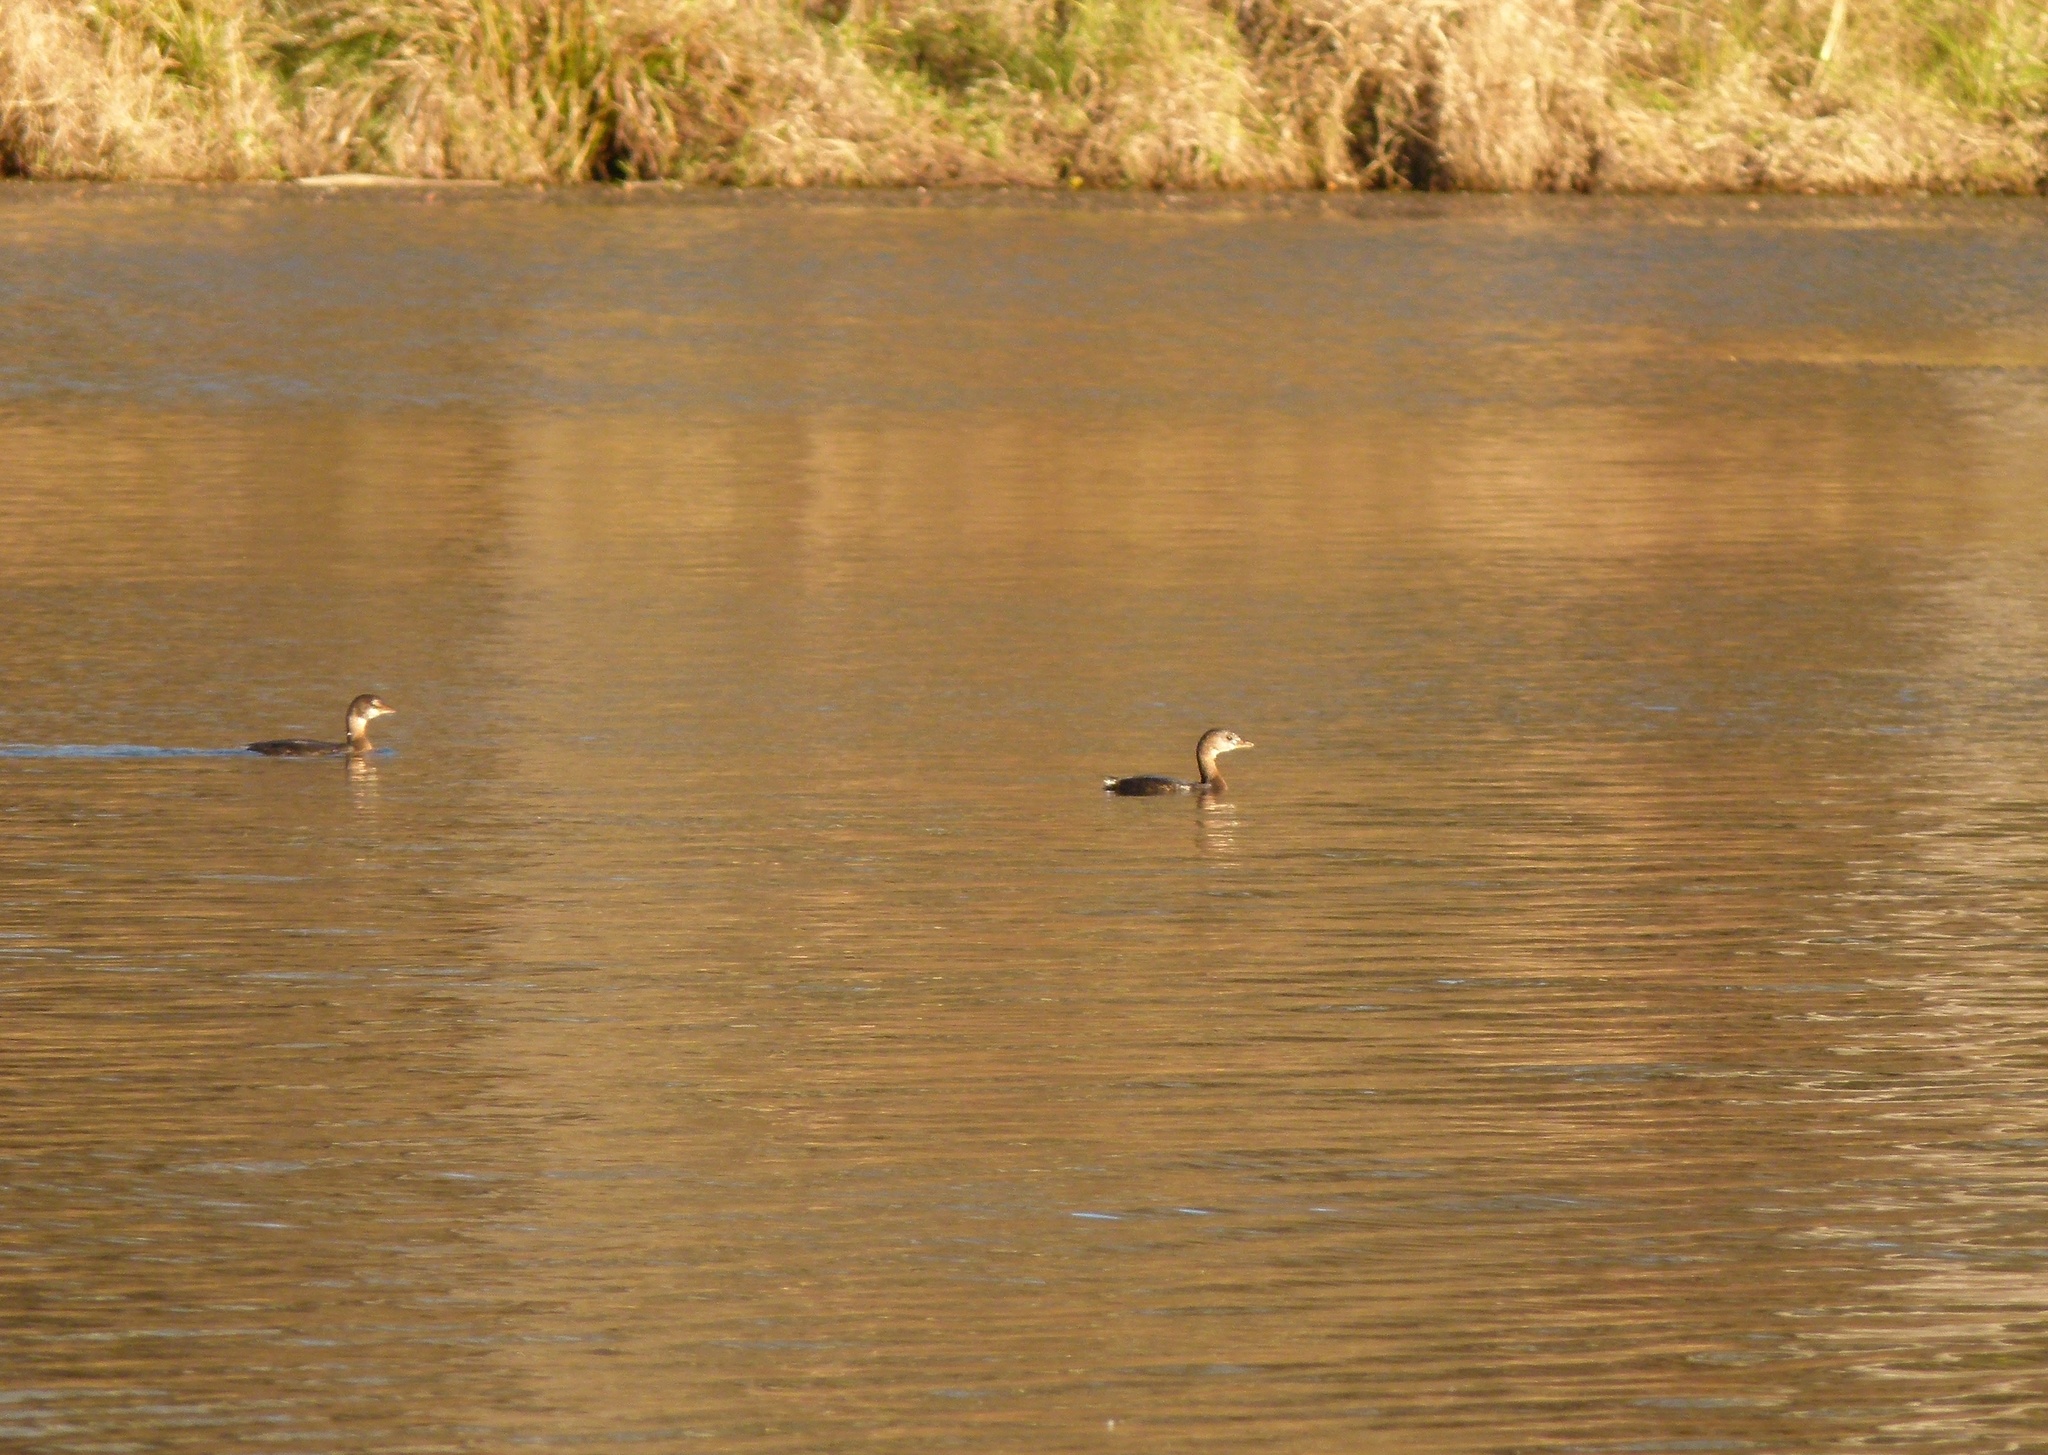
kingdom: Animalia
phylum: Chordata
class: Aves
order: Podicipediformes
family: Podicipedidae
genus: Podilymbus
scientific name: Podilymbus podiceps
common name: Pied-billed grebe
